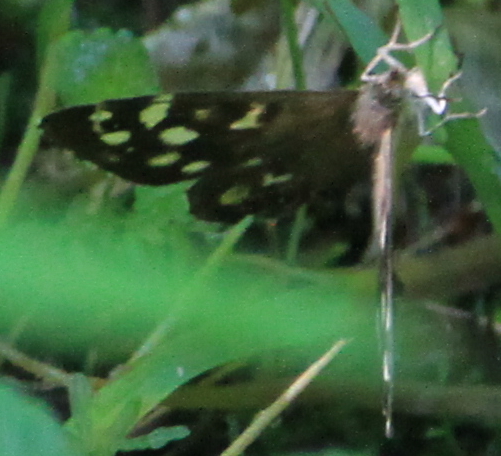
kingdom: Animalia
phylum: Arthropoda
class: Insecta
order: Lepidoptera
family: Nymphalidae
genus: Pararge
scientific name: Pararge aegeria
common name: Speckled wood
